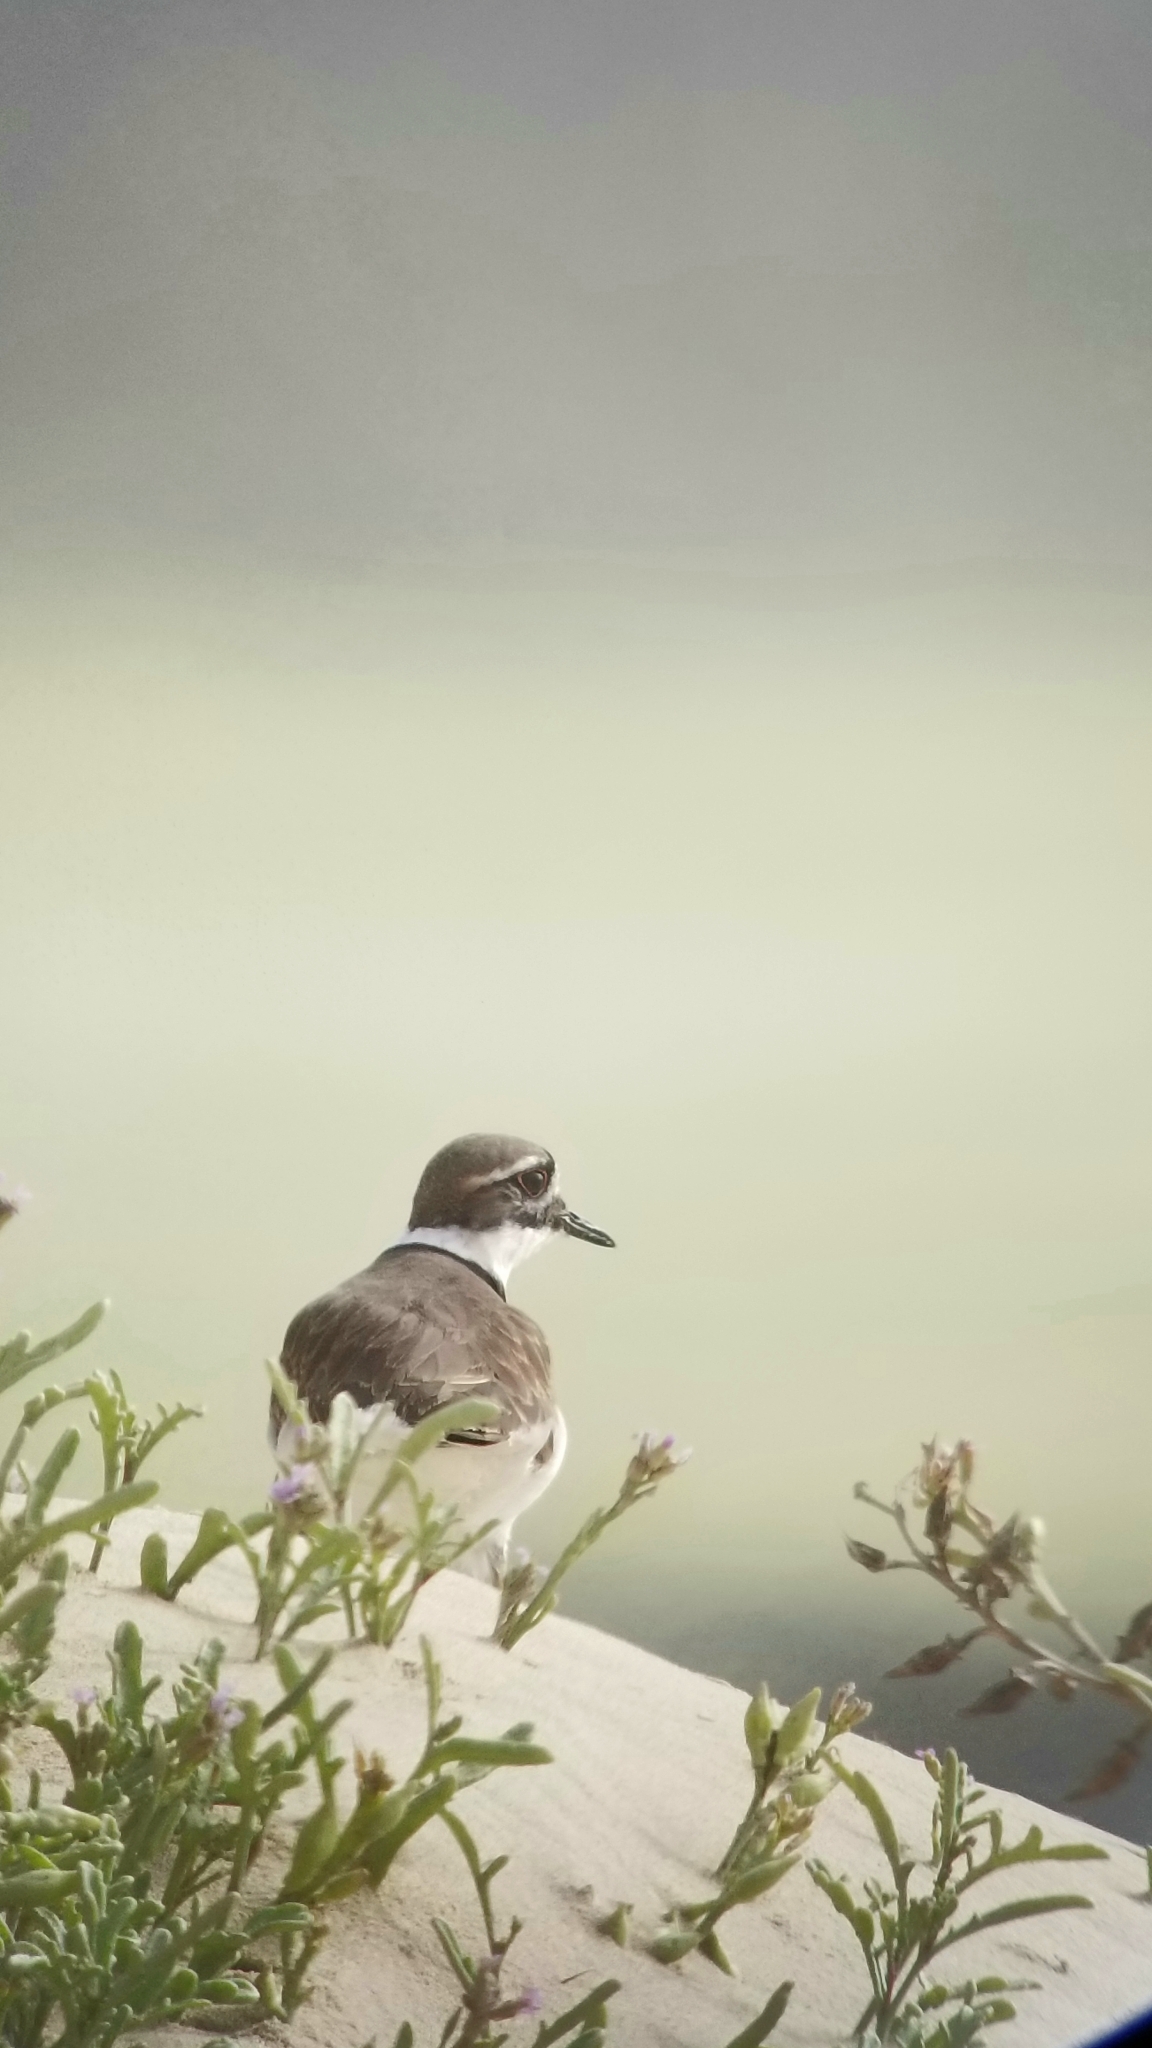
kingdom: Animalia
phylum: Chordata
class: Aves
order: Charadriiformes
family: Charadriidae
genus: Charadrius
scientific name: Charadrius vociferus
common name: Killdeer
